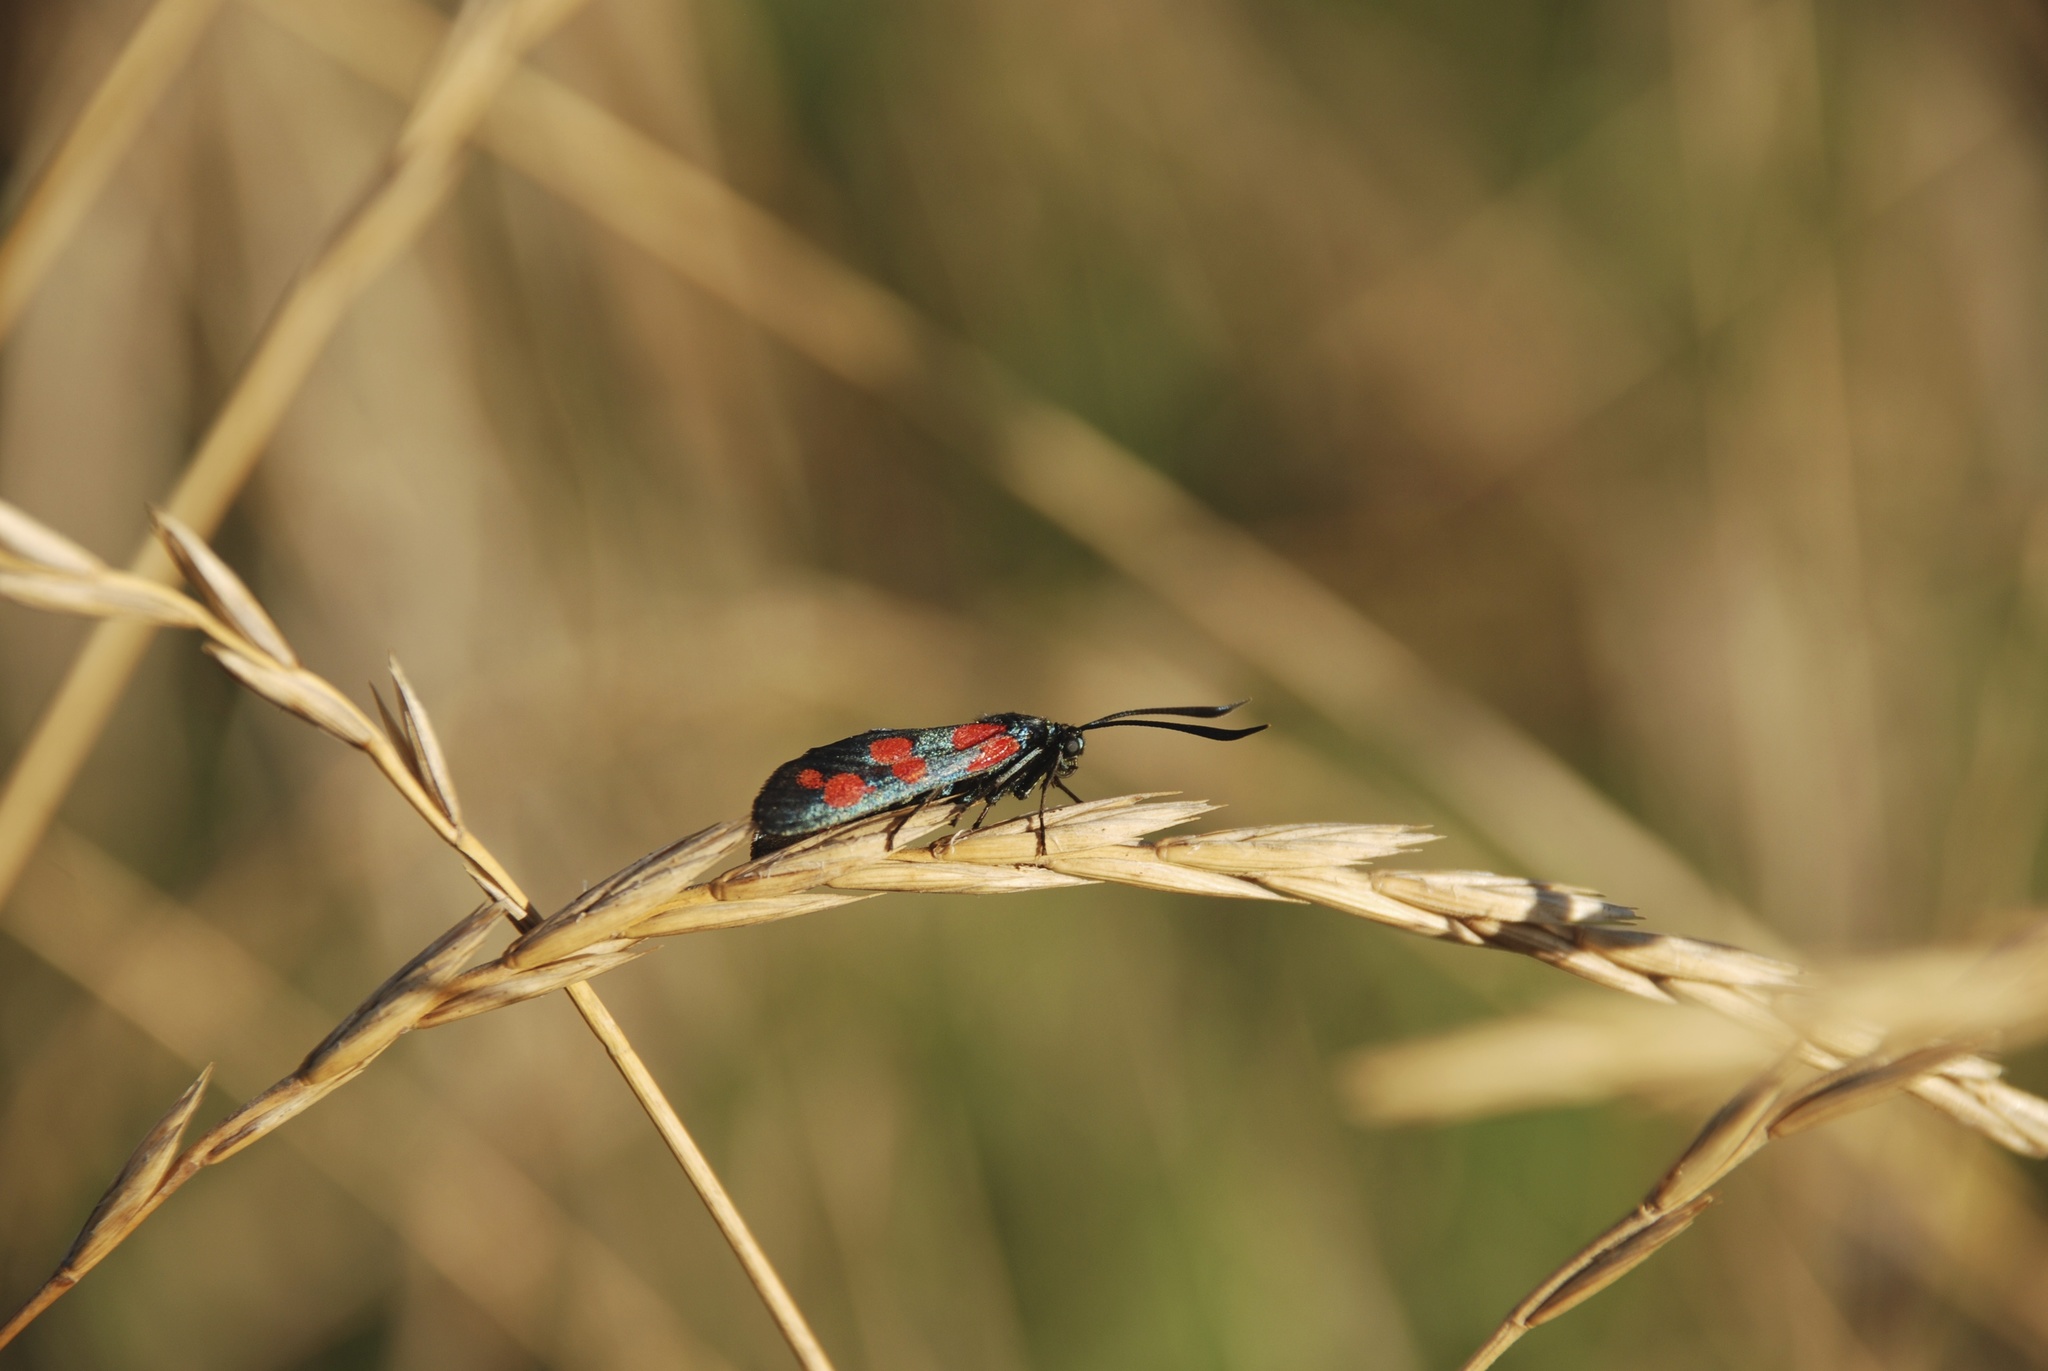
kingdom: Animalia
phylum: Arthropoda
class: Insecta
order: Lepidoptera
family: Zygaenidae
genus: Zygaena
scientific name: Zygaena filipendulae
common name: Six-spot burnet
